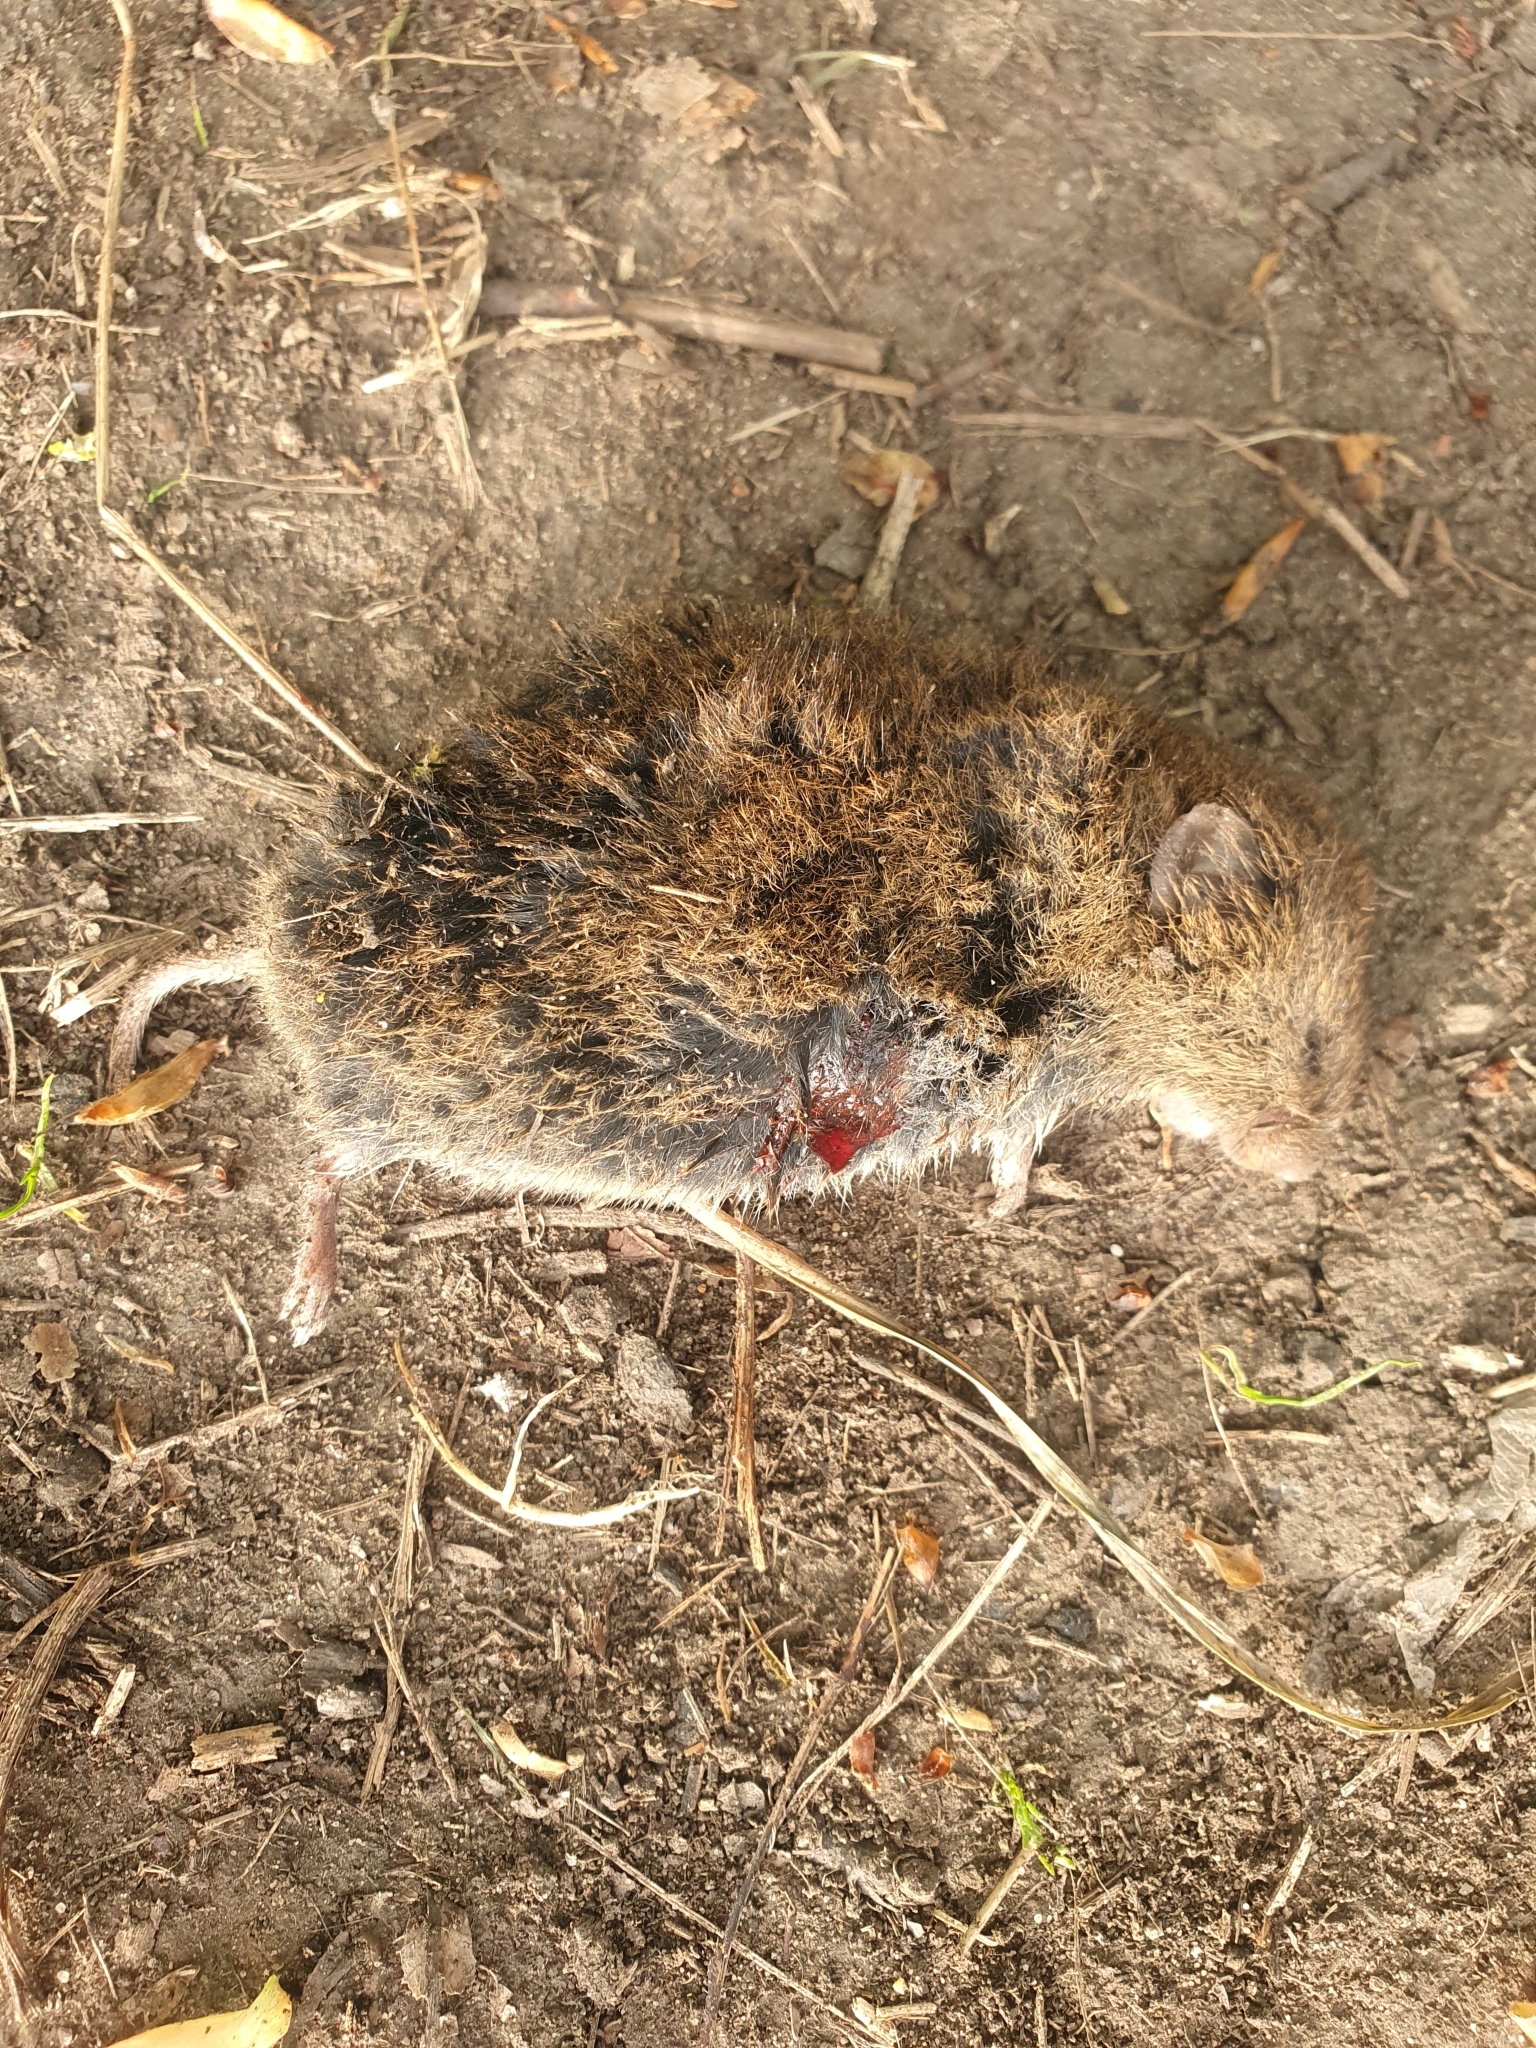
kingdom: Animalia
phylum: Chordata
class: Mammalia
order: Rodentia
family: Cricetidae
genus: Microtus
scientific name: Microtus agrestis
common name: Field vole
